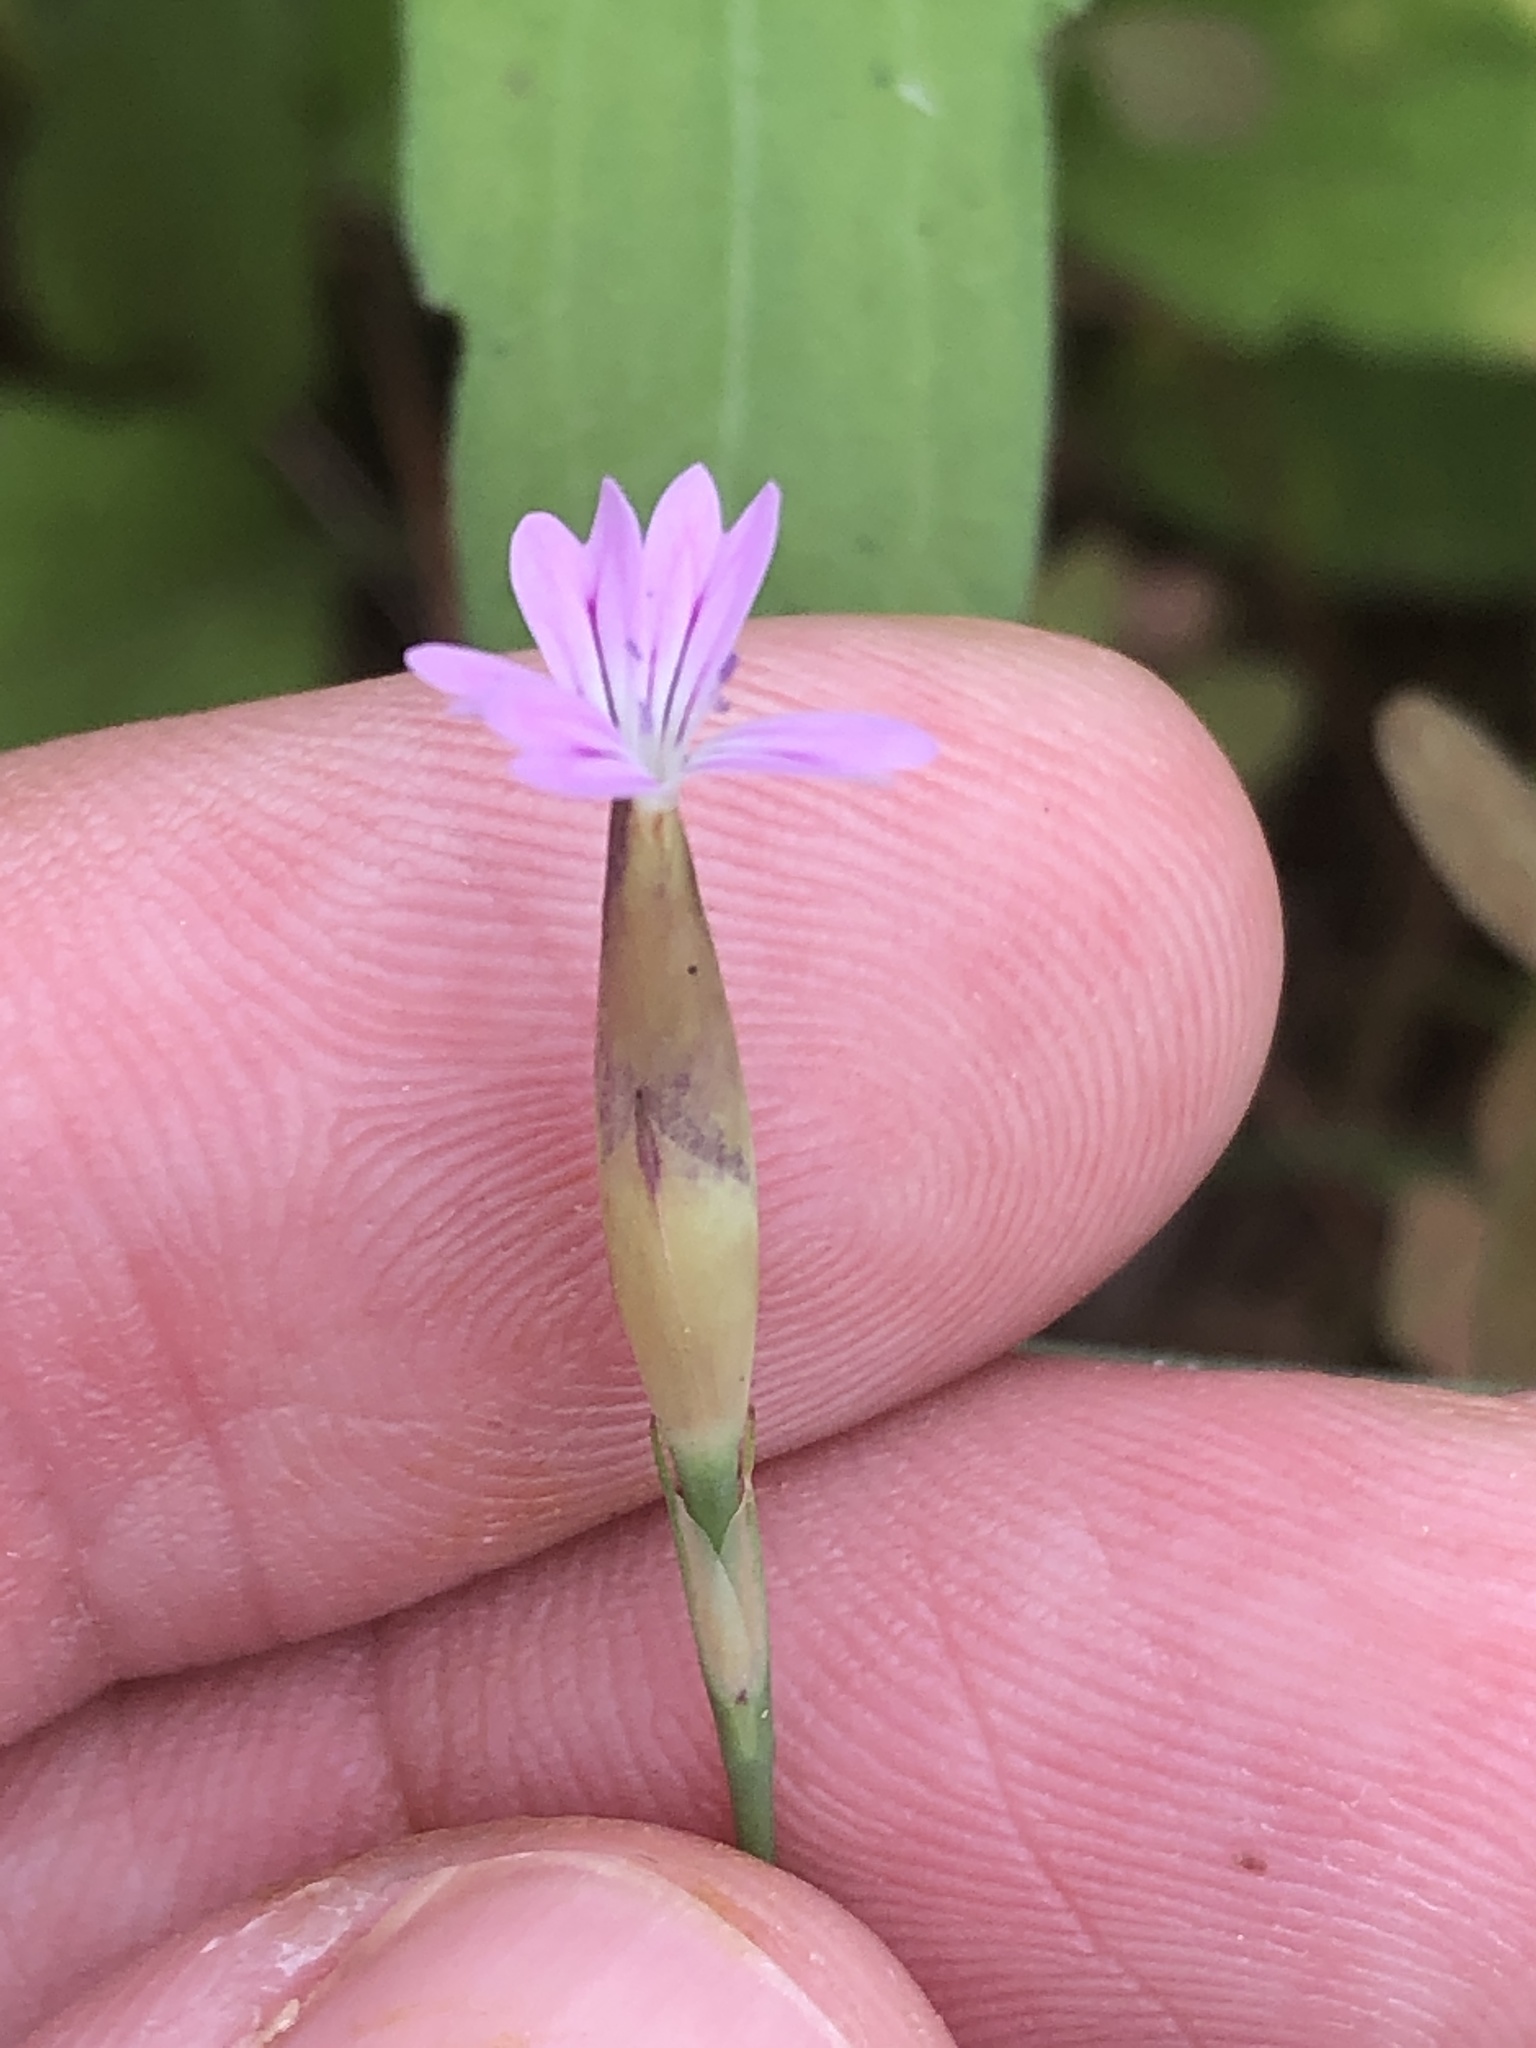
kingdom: Plantae
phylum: Tracheophyta
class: Magnoliopsida
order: Caryophyllales
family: Caryophyllaceae
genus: Petrorhagia
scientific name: Petrorhagia dubia
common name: Hairypink
